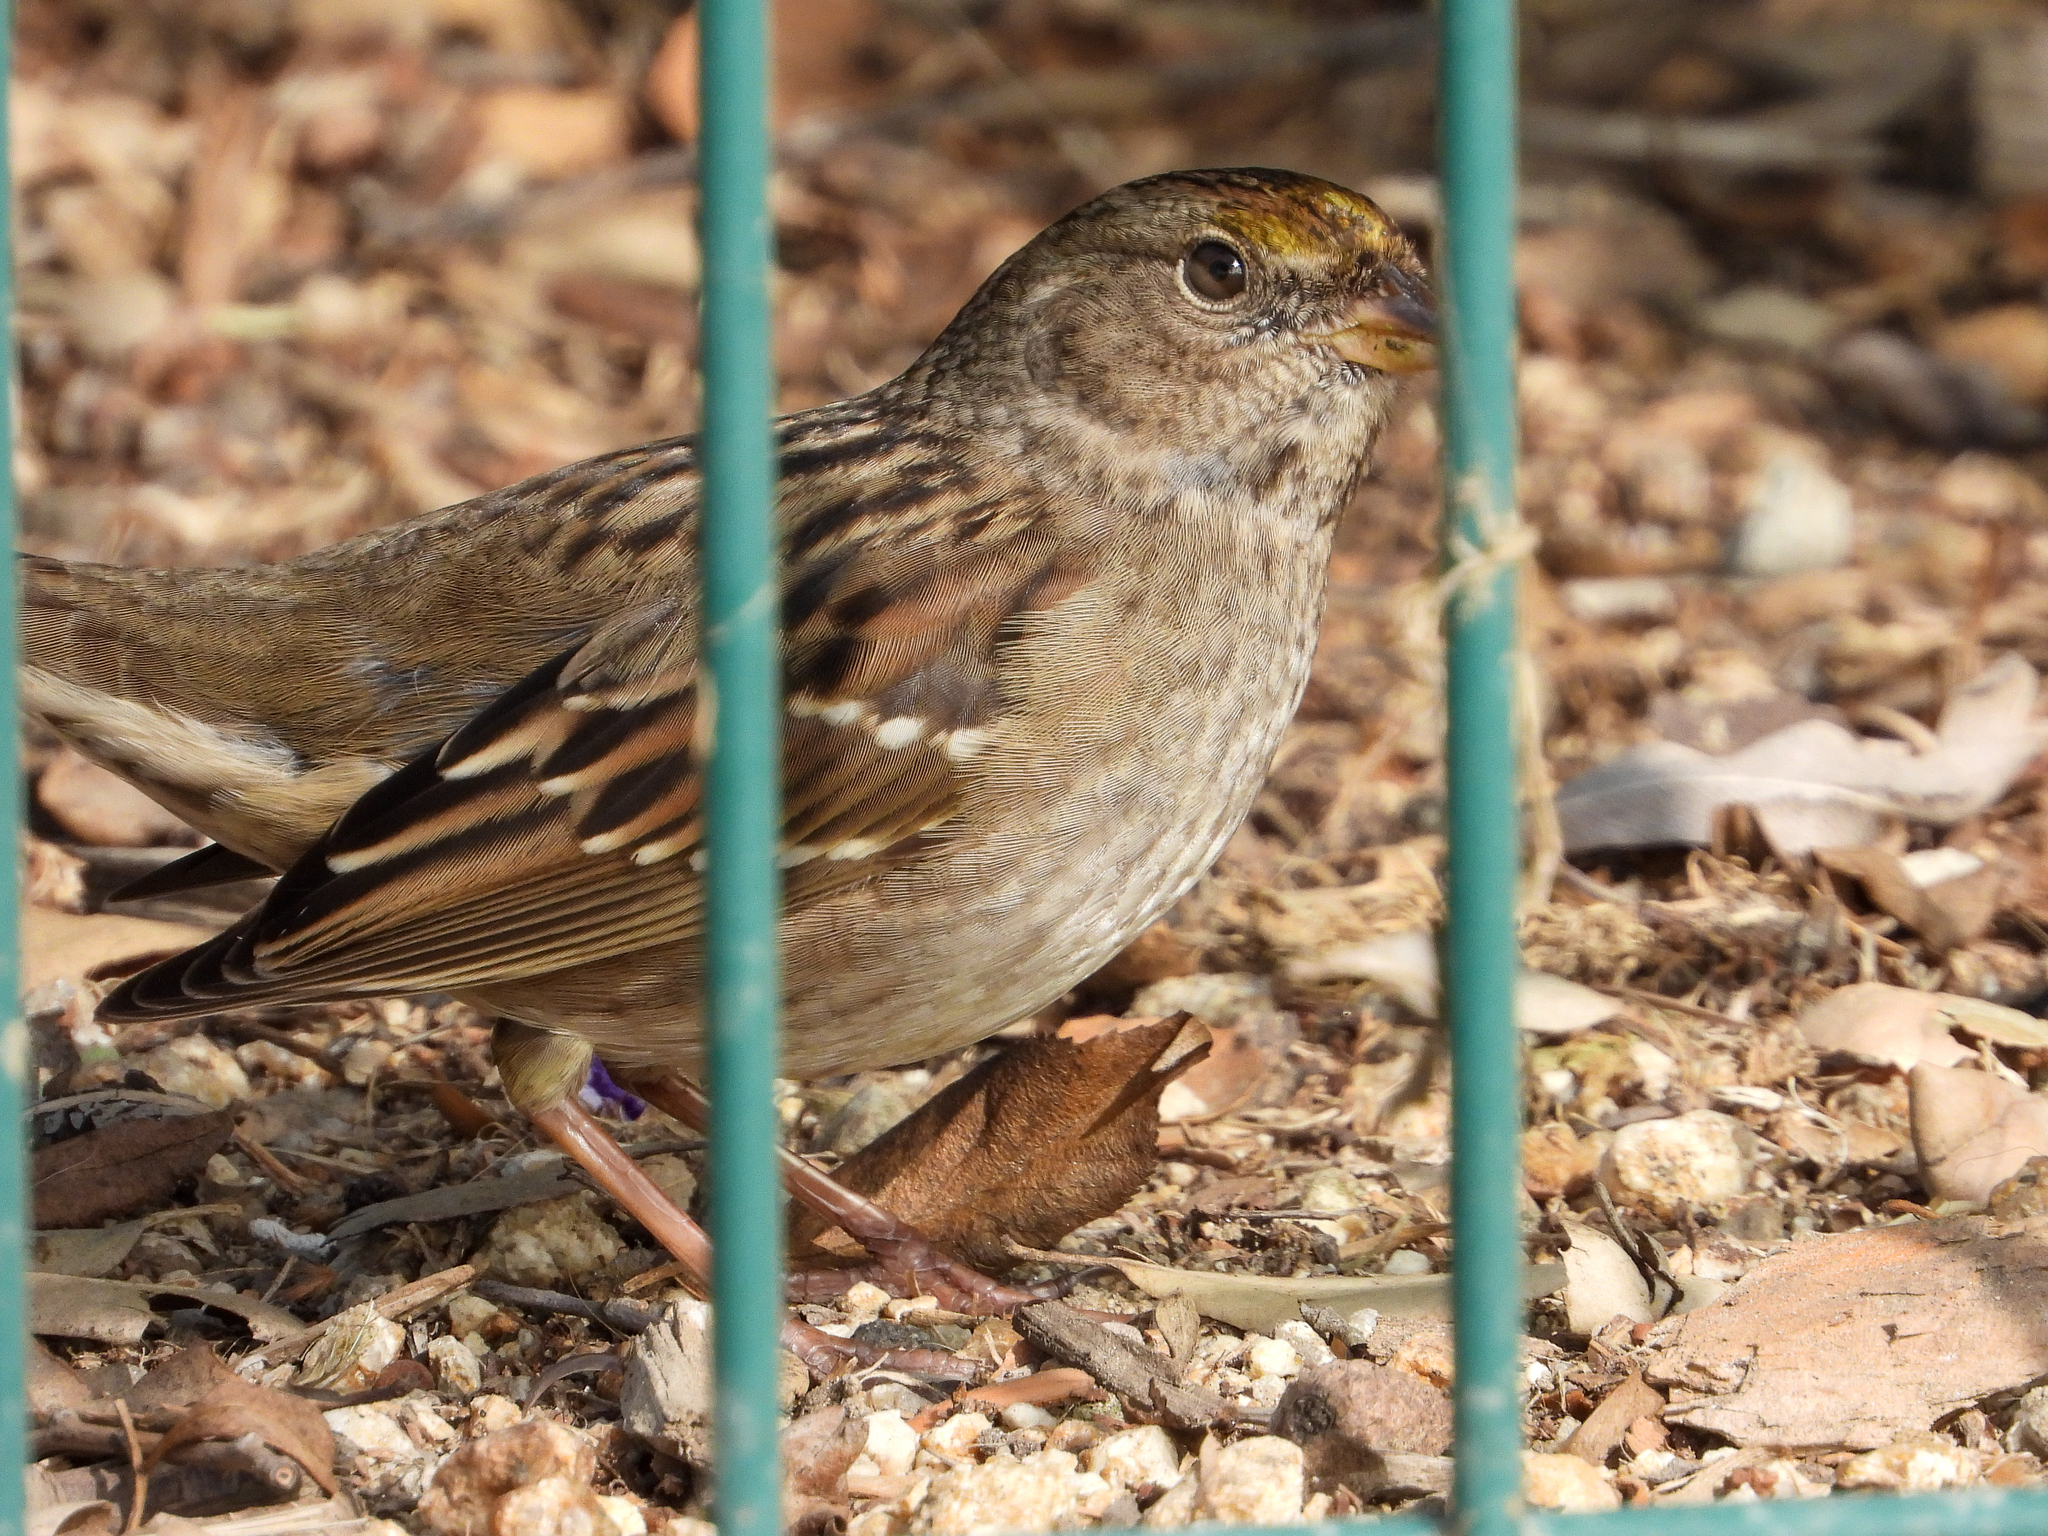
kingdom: Animalia
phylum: Chordata
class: Aves
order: Passeriformes
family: Passerellidae
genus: Zonotrichia
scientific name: Zonotrichia atricapilla
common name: Golden-crowned sparrow
